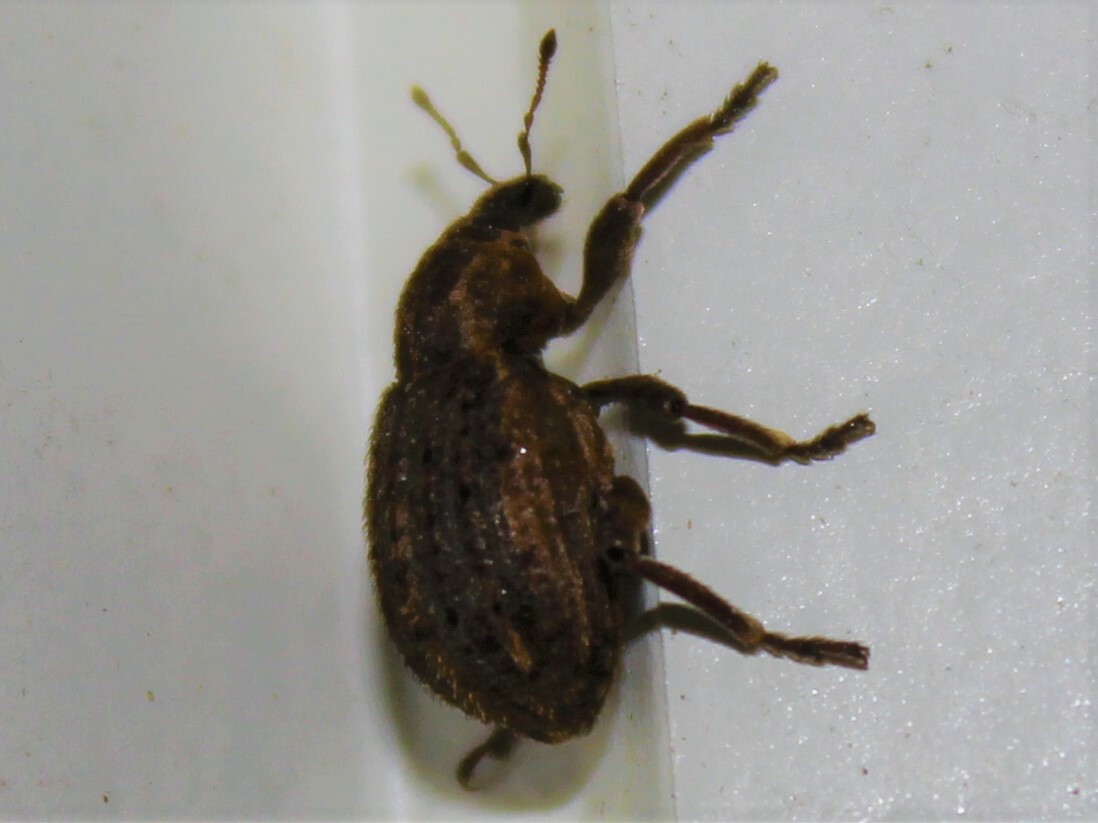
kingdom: Animalia
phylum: Arthropoda
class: Insecta
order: Coleoptera
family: Curculionidae
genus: Brachypera
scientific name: Brachypera zoilus
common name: Clover leaf weevil
